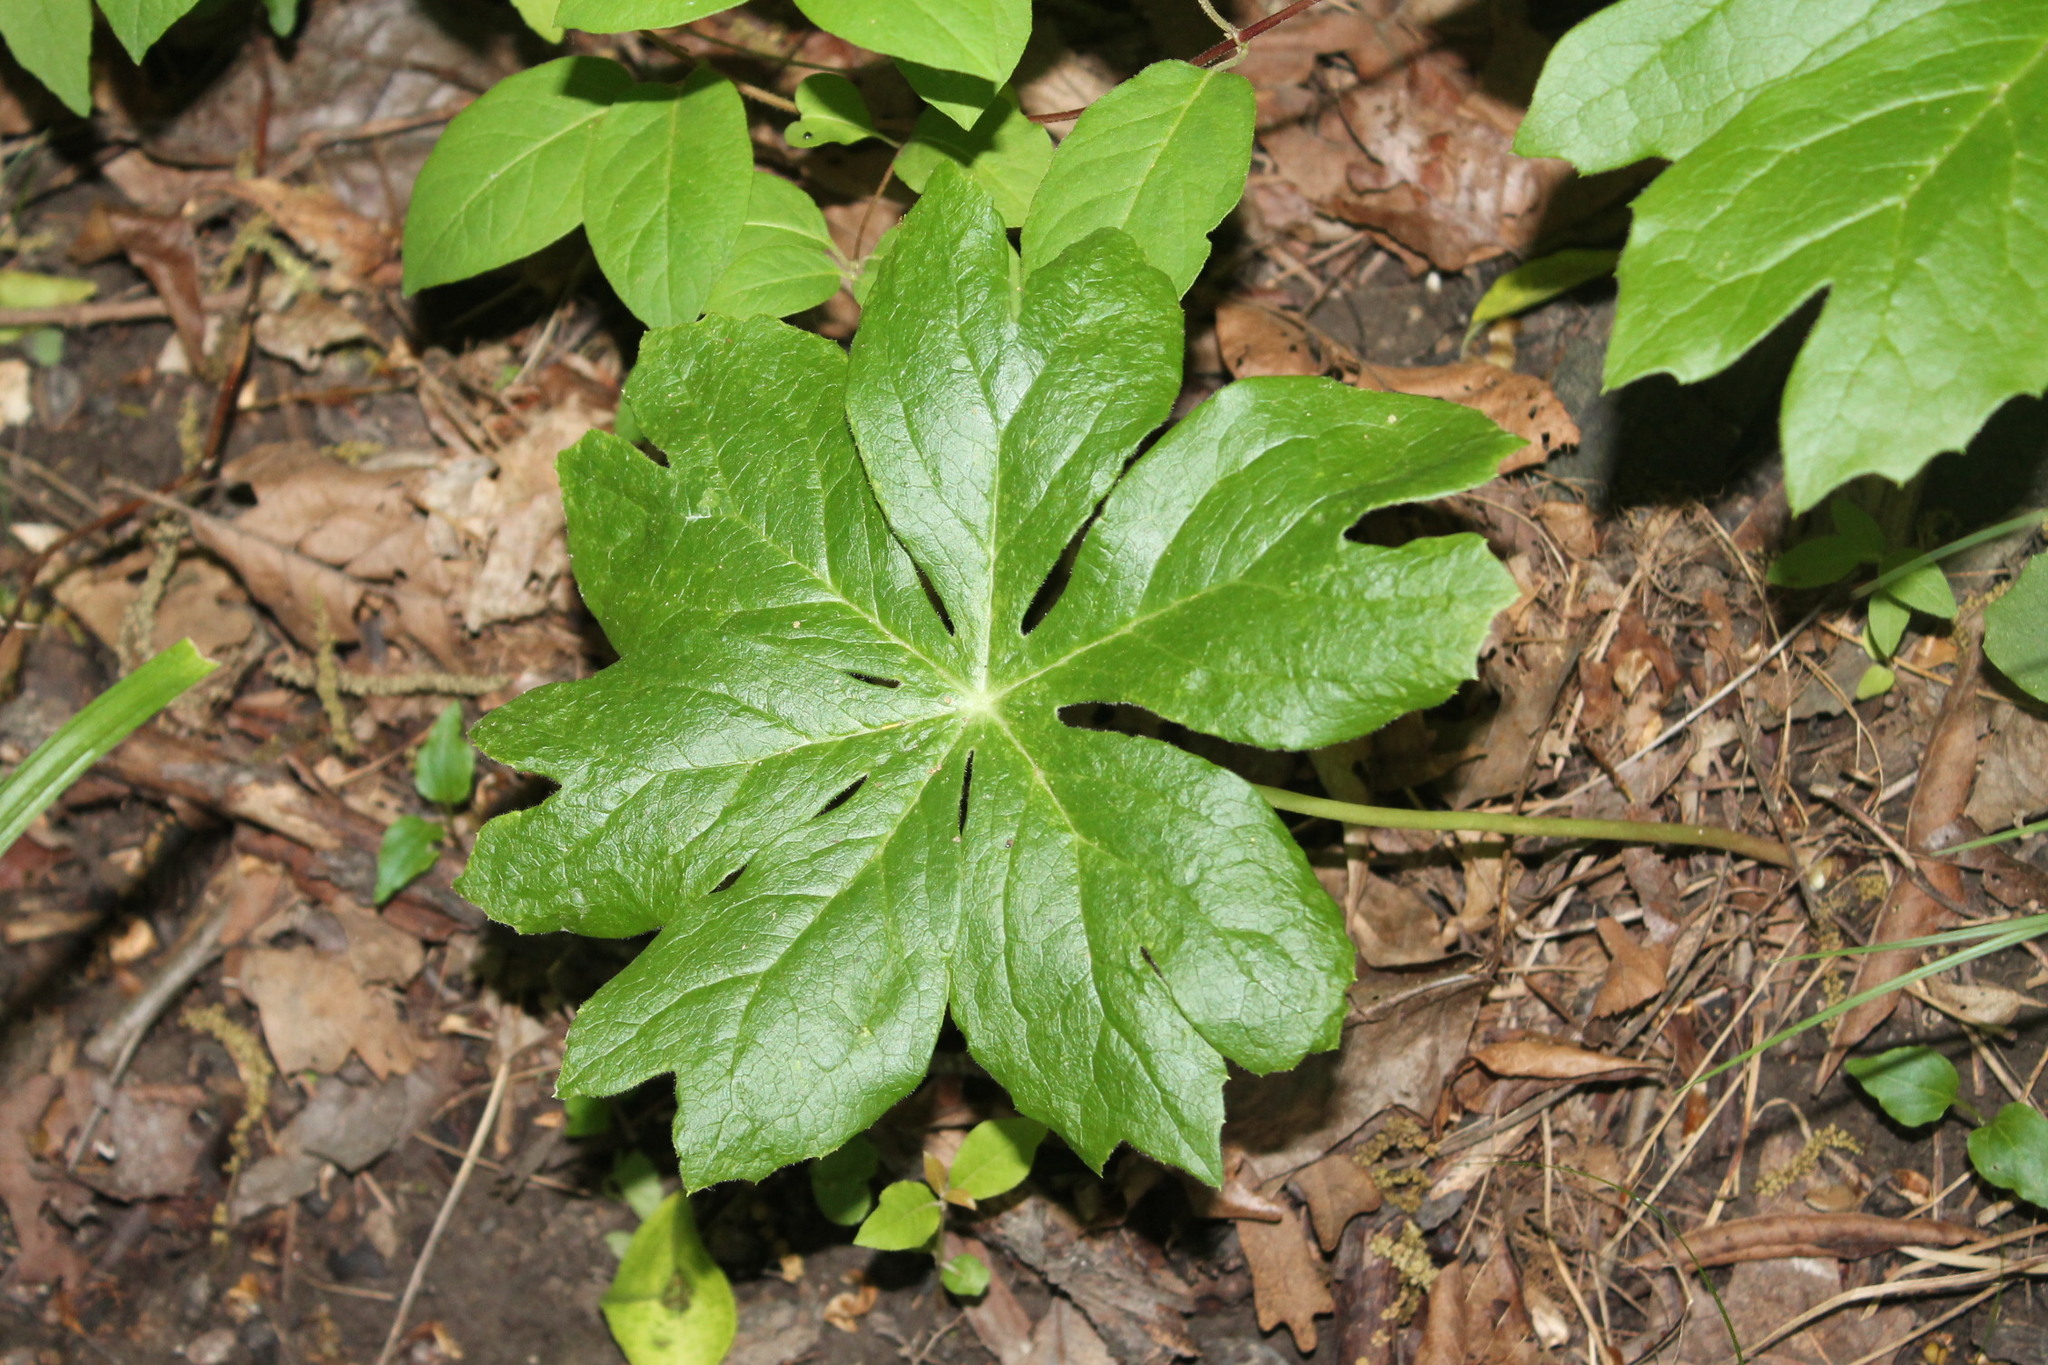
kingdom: Plantae
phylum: Tracheophyta
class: Magnoliopsida
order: Ranunculales
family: Berberidaceae
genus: Podophyllum
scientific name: Podophyllum peltatum
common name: Wild mandrake
